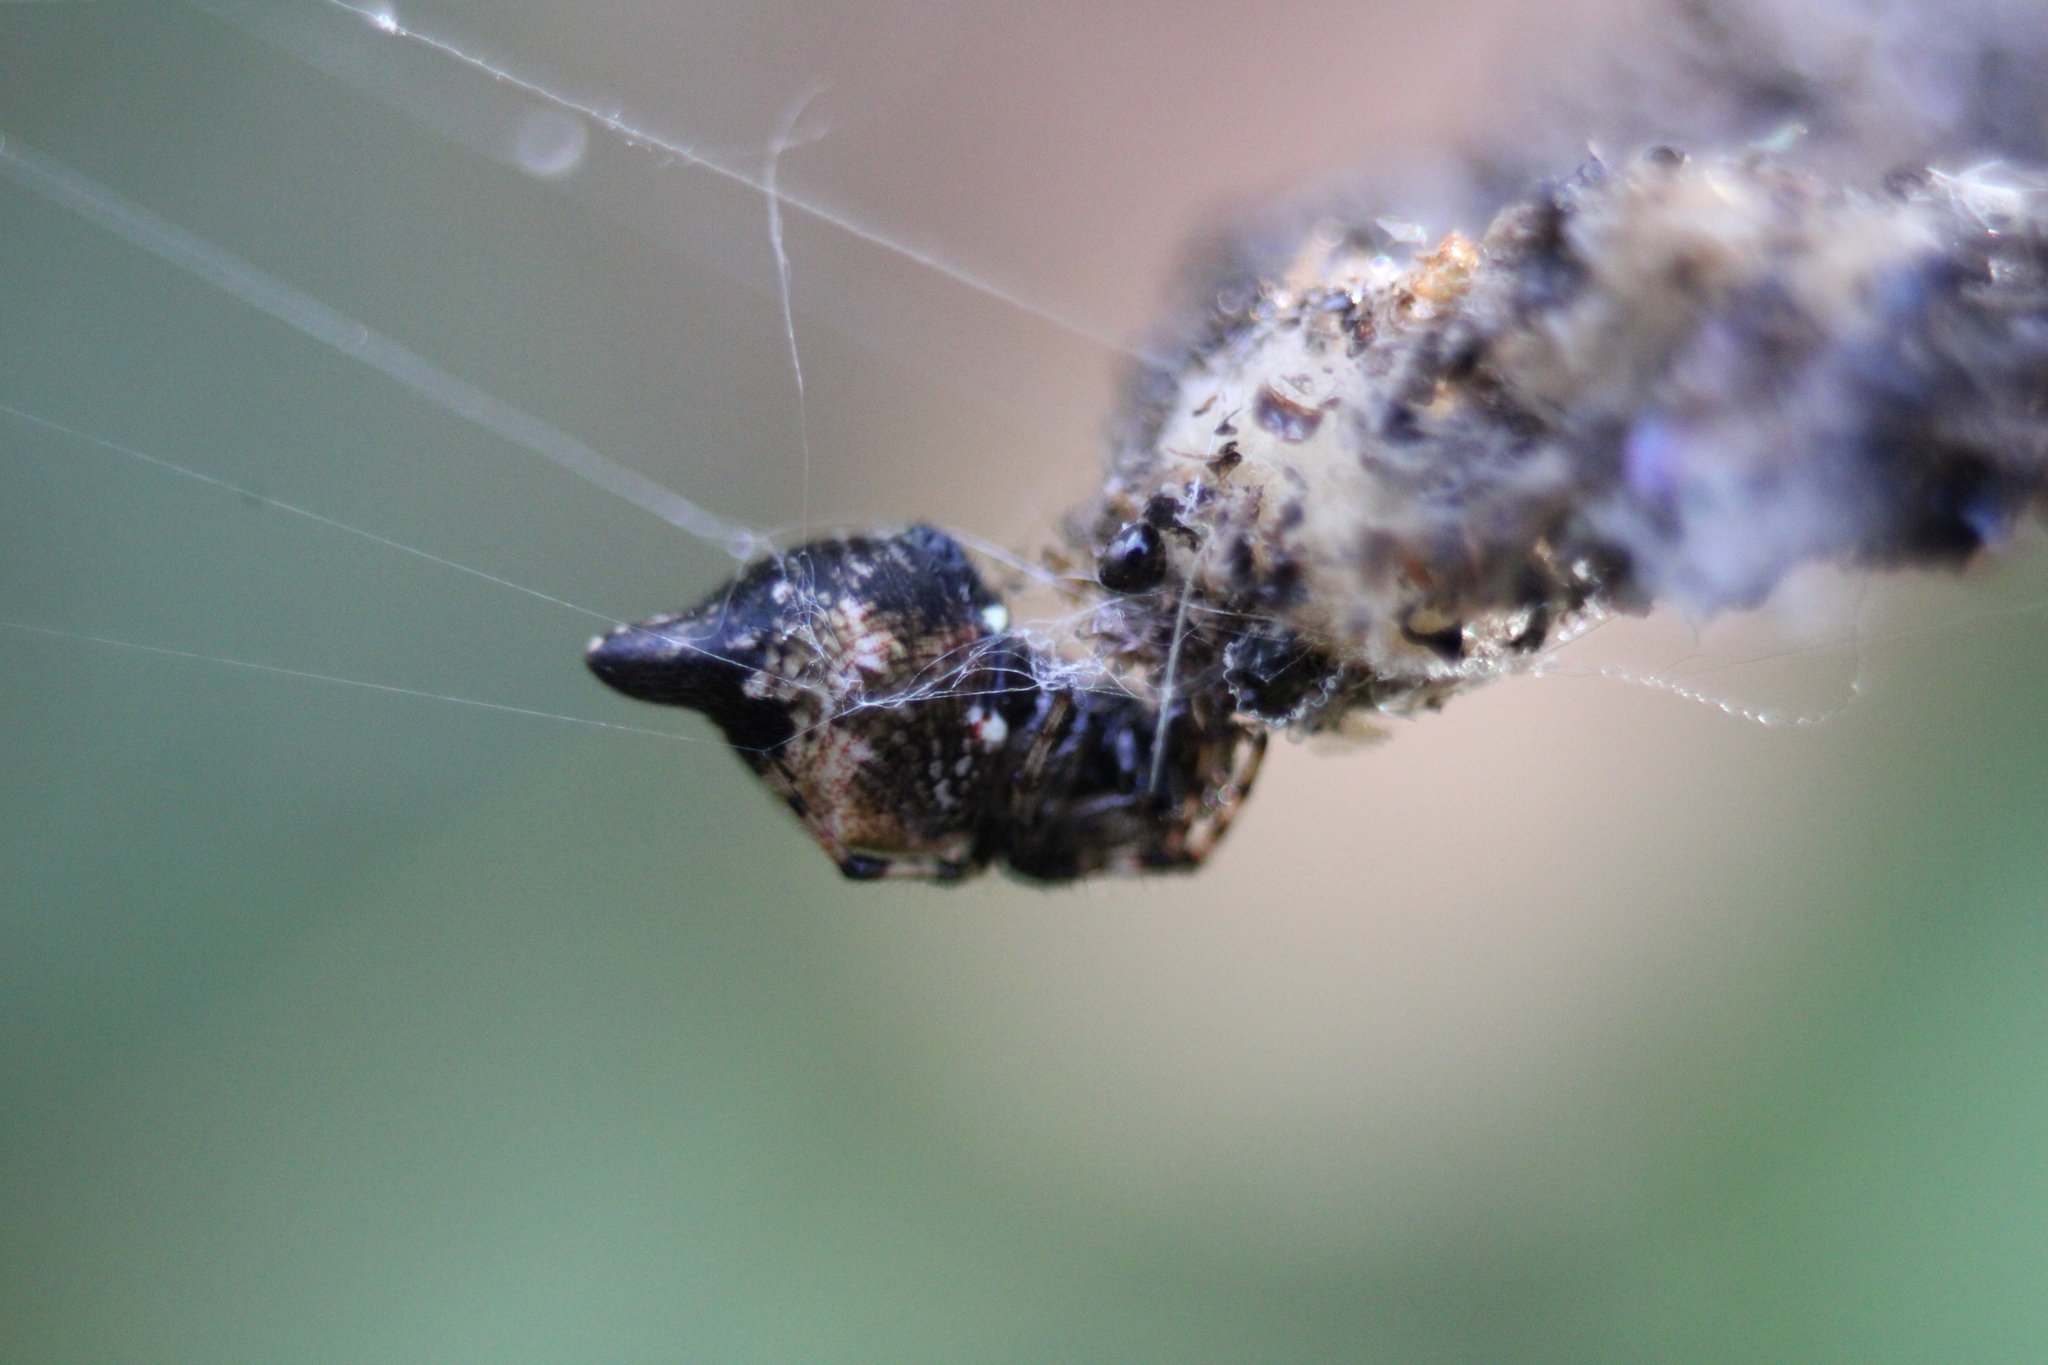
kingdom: Animalia
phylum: Arthropoda
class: Arachnida
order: Araneae
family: Araneidae
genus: Cyclosa
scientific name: Cyclosa turbinata
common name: Orb weavers
